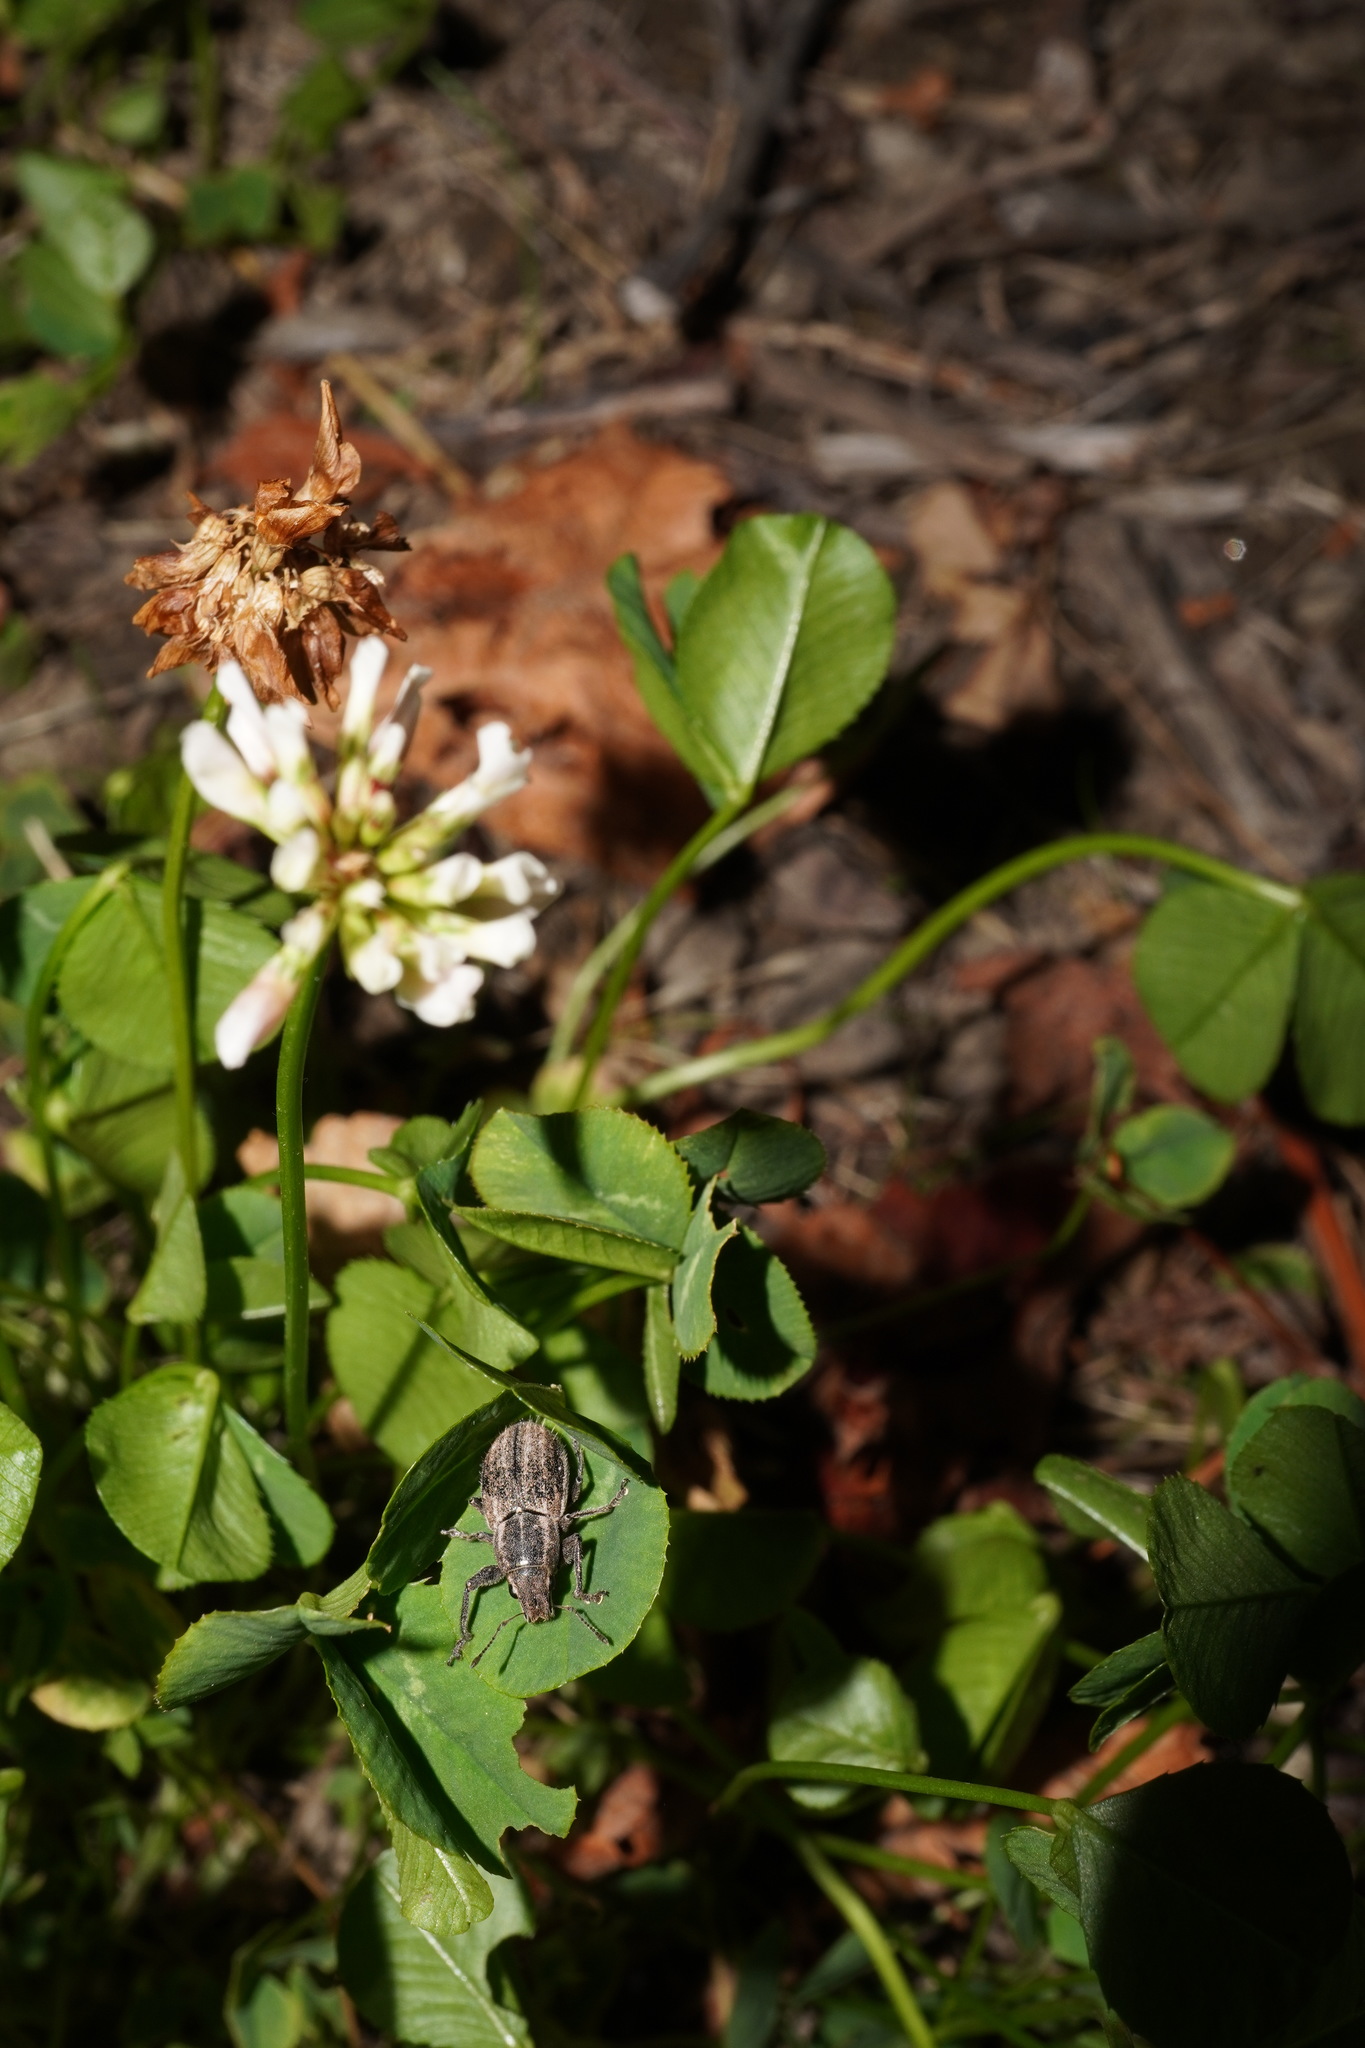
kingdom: Animalia
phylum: Arthropoda
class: Insecta
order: Coleoptera
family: Curculionidae
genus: Naupactus
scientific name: Naupactus leucoloma
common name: Whitefringed beetle
